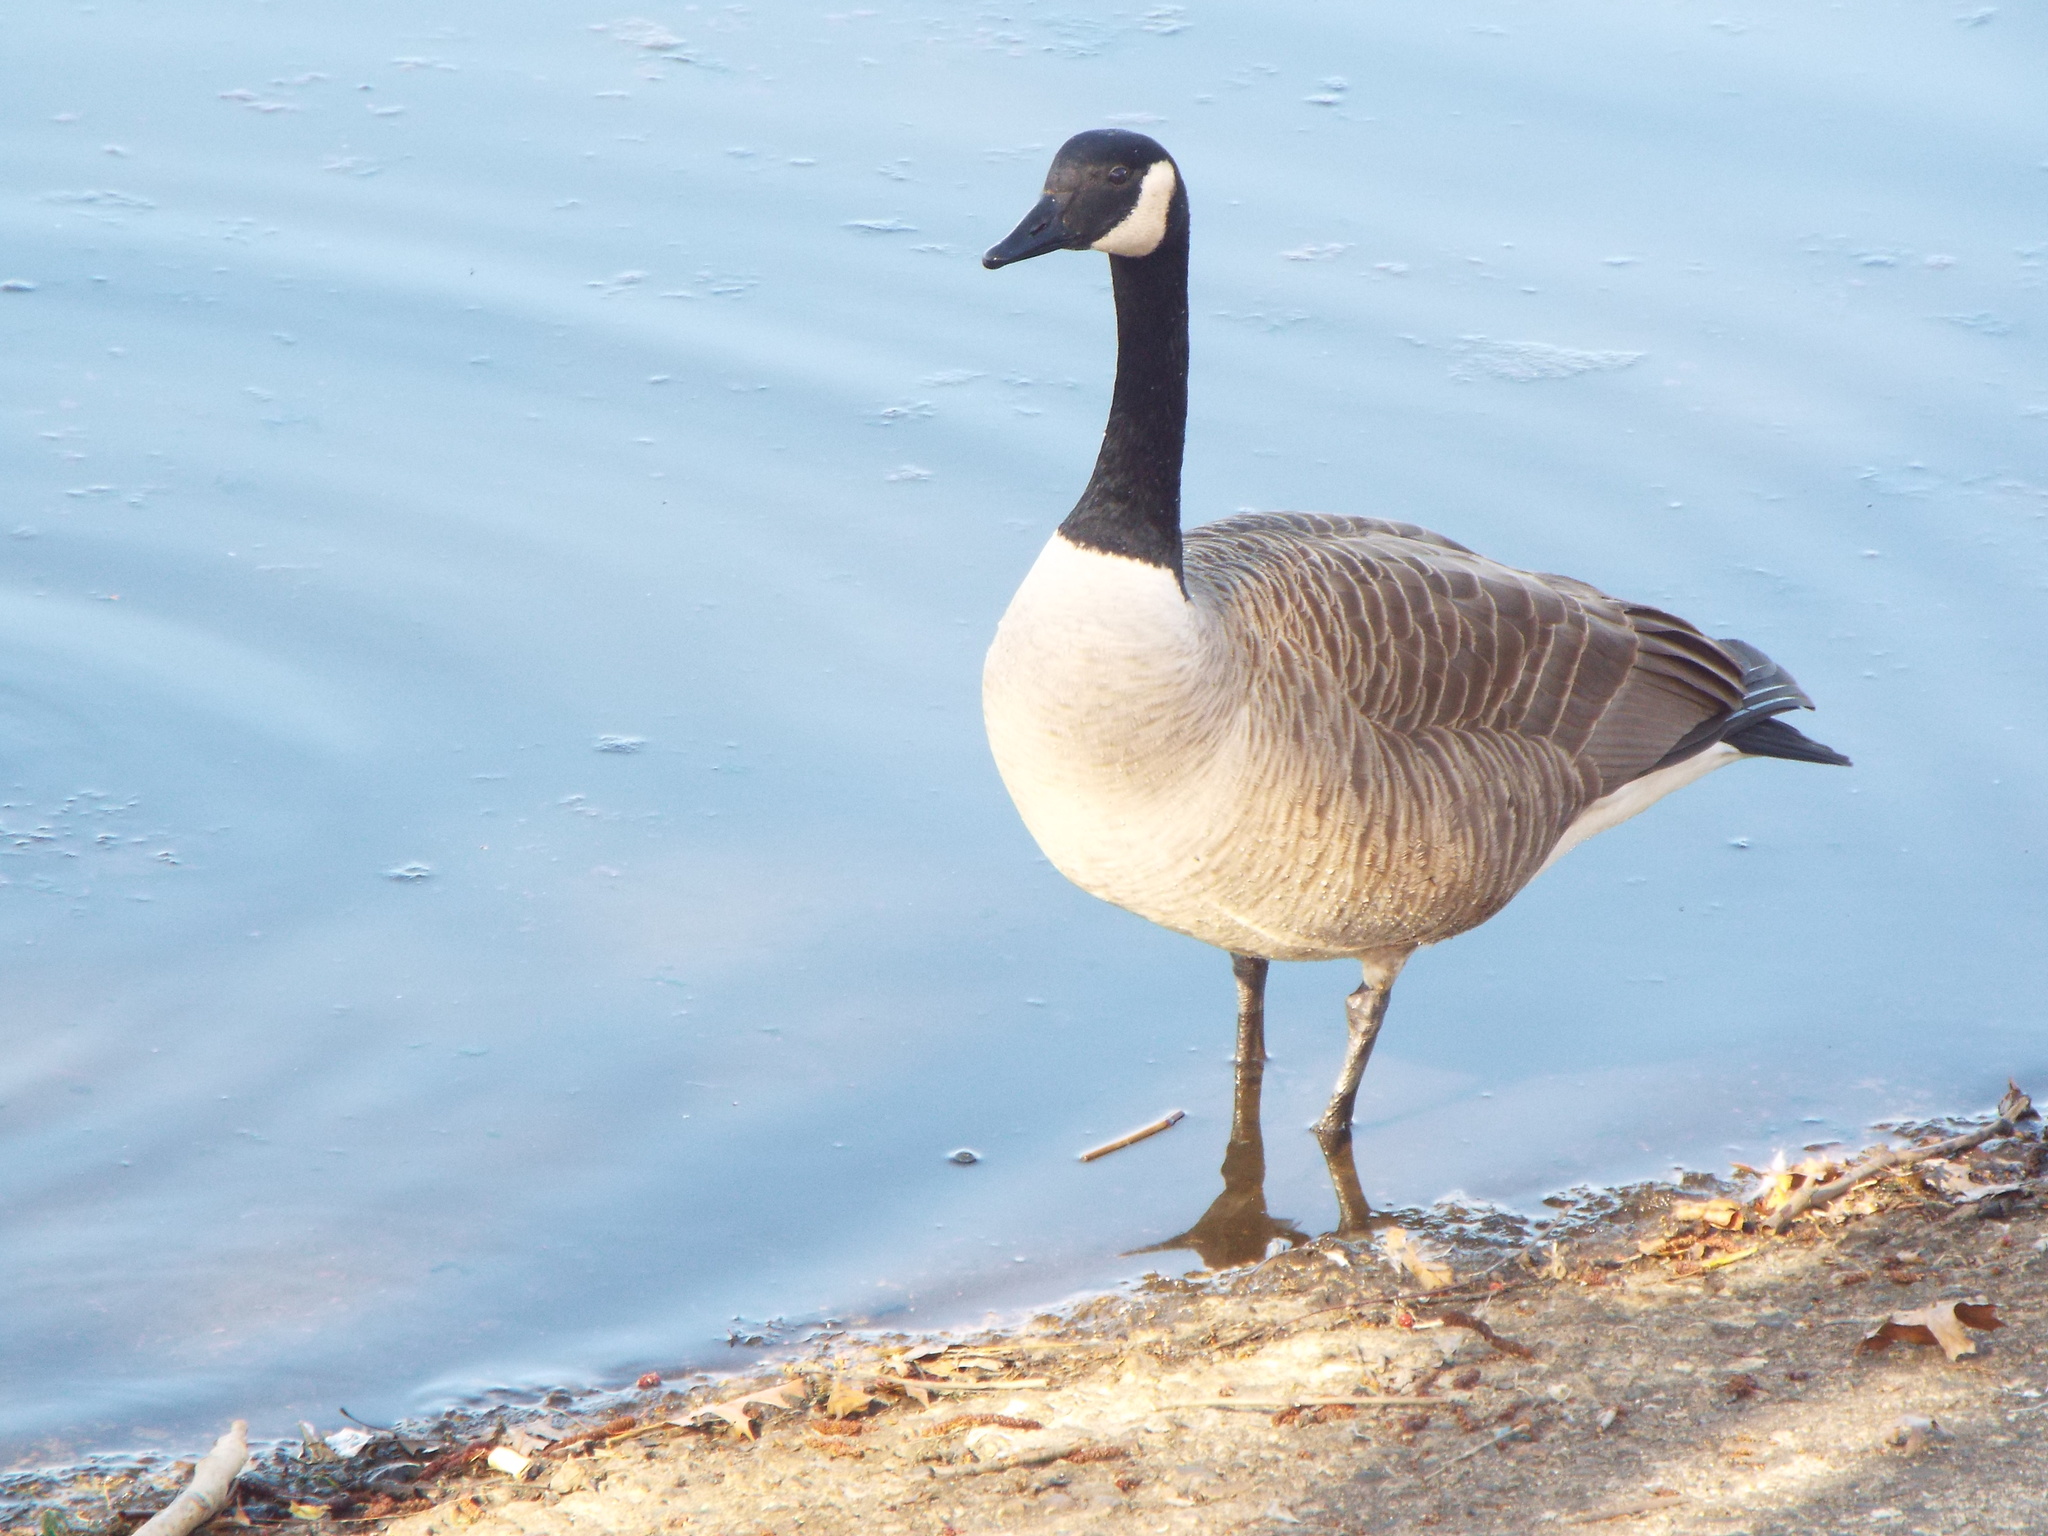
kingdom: Animalia
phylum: Chordata
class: Aves
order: Anseriformes
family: Anatidae
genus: Branta
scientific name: Branta canadensis
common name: Canada goose
